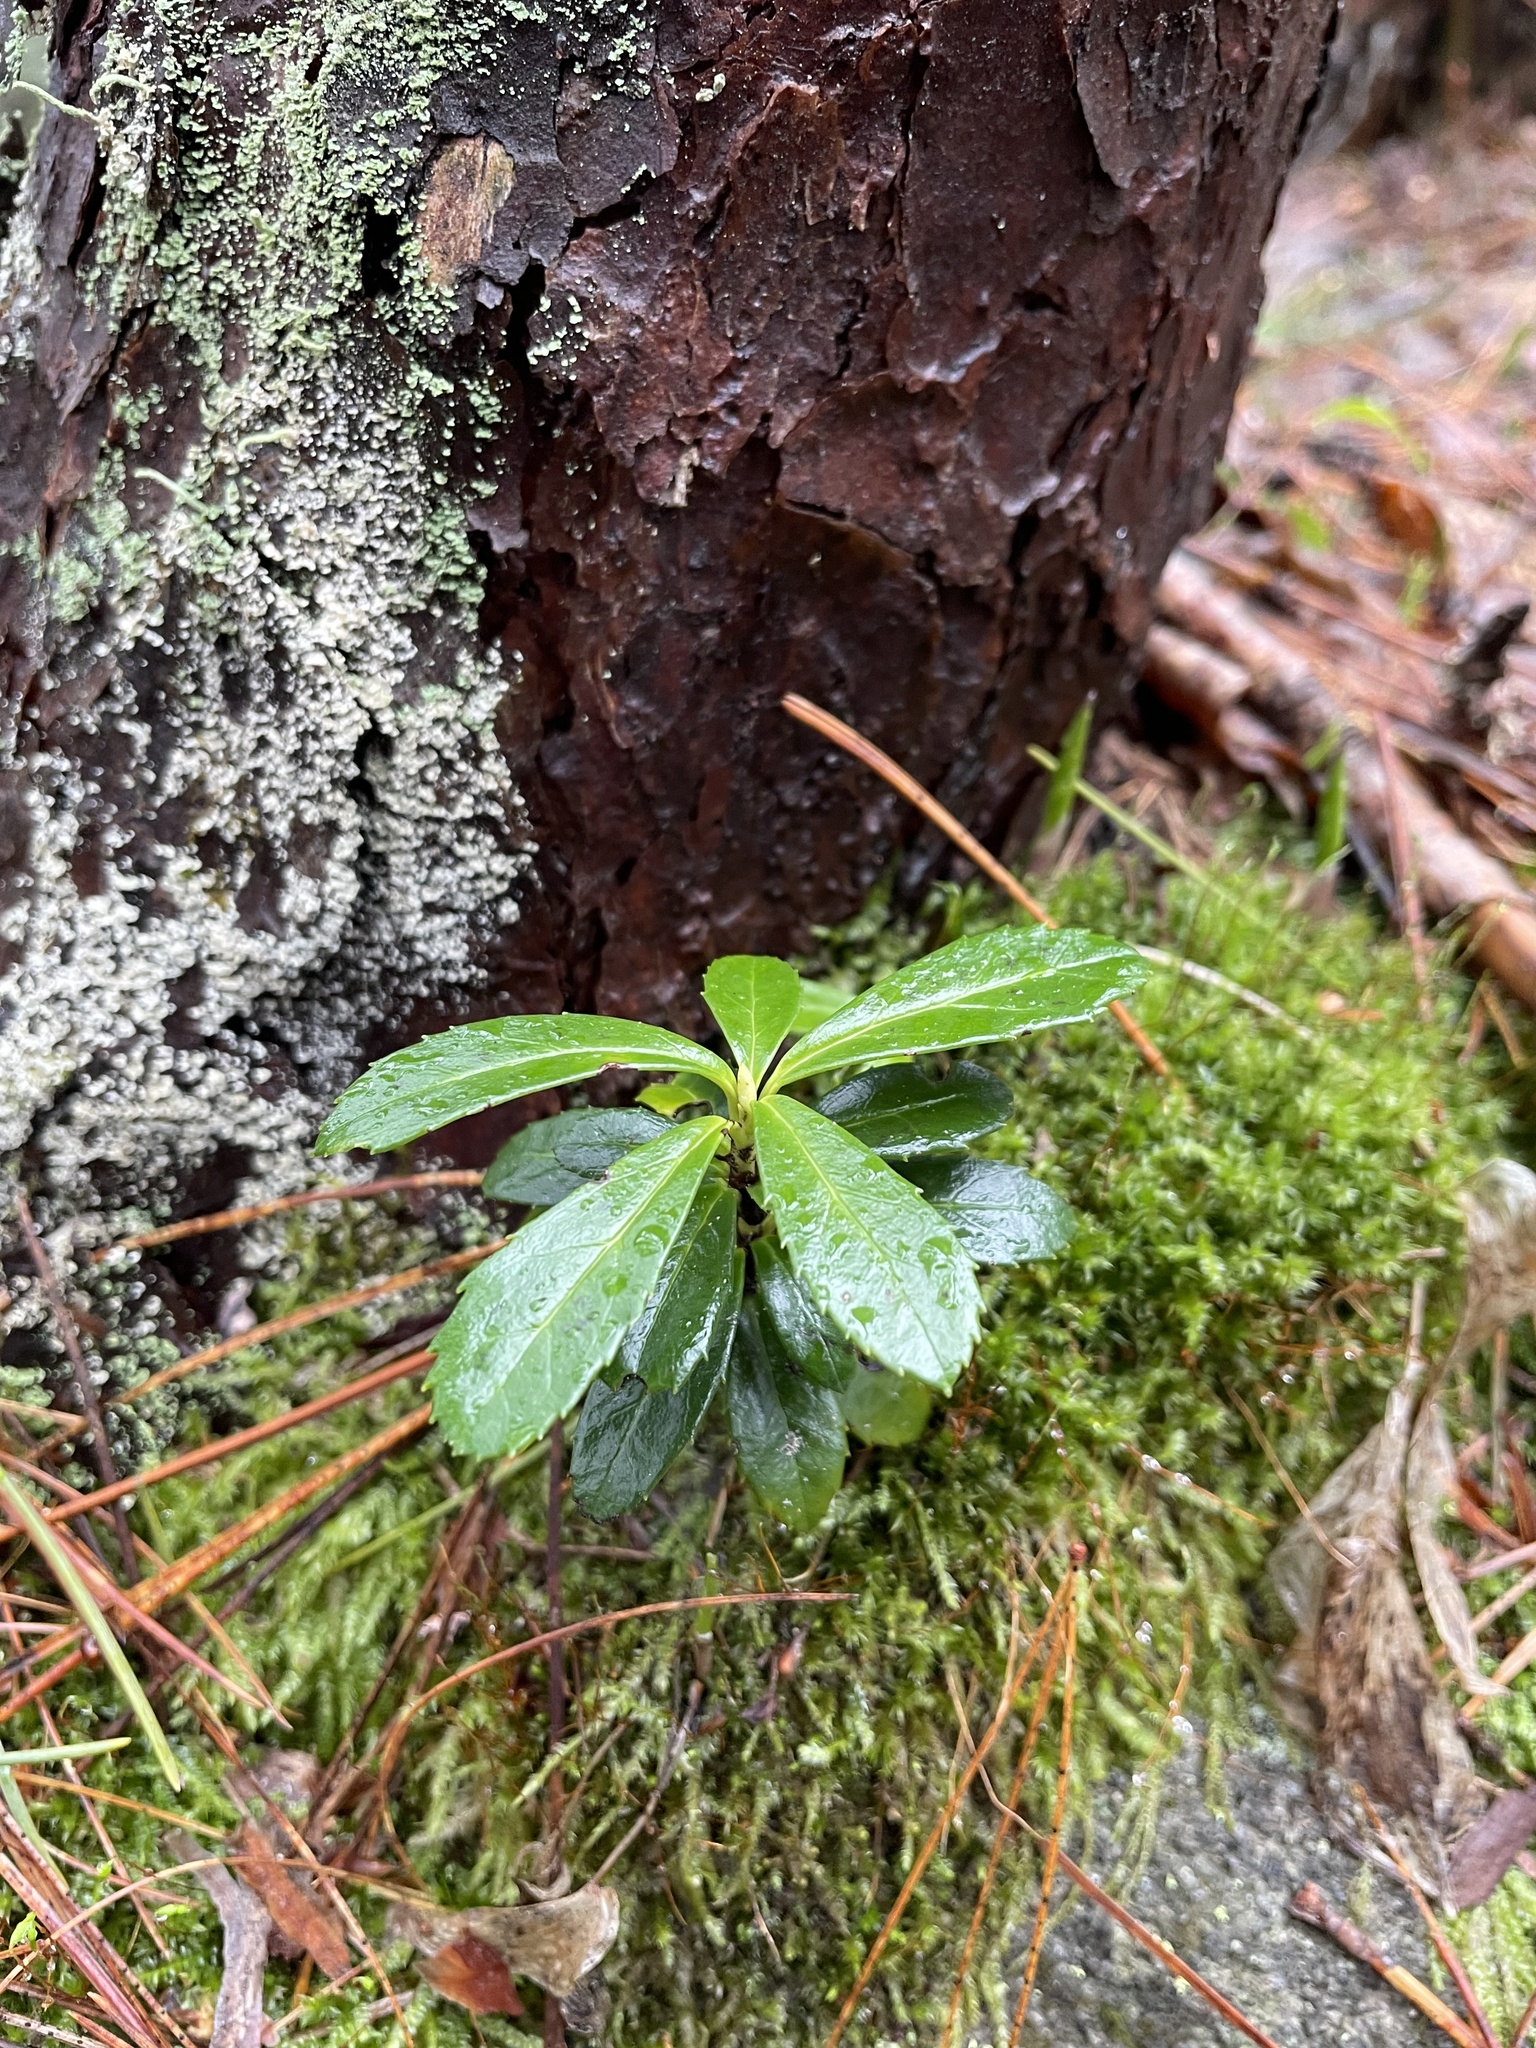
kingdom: Plantae
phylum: Tracheophyta
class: Magnoliopsida
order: Ericales
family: Ericaceae
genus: Chimaphila
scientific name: Chimaphila umbellata
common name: Pipsissewa
